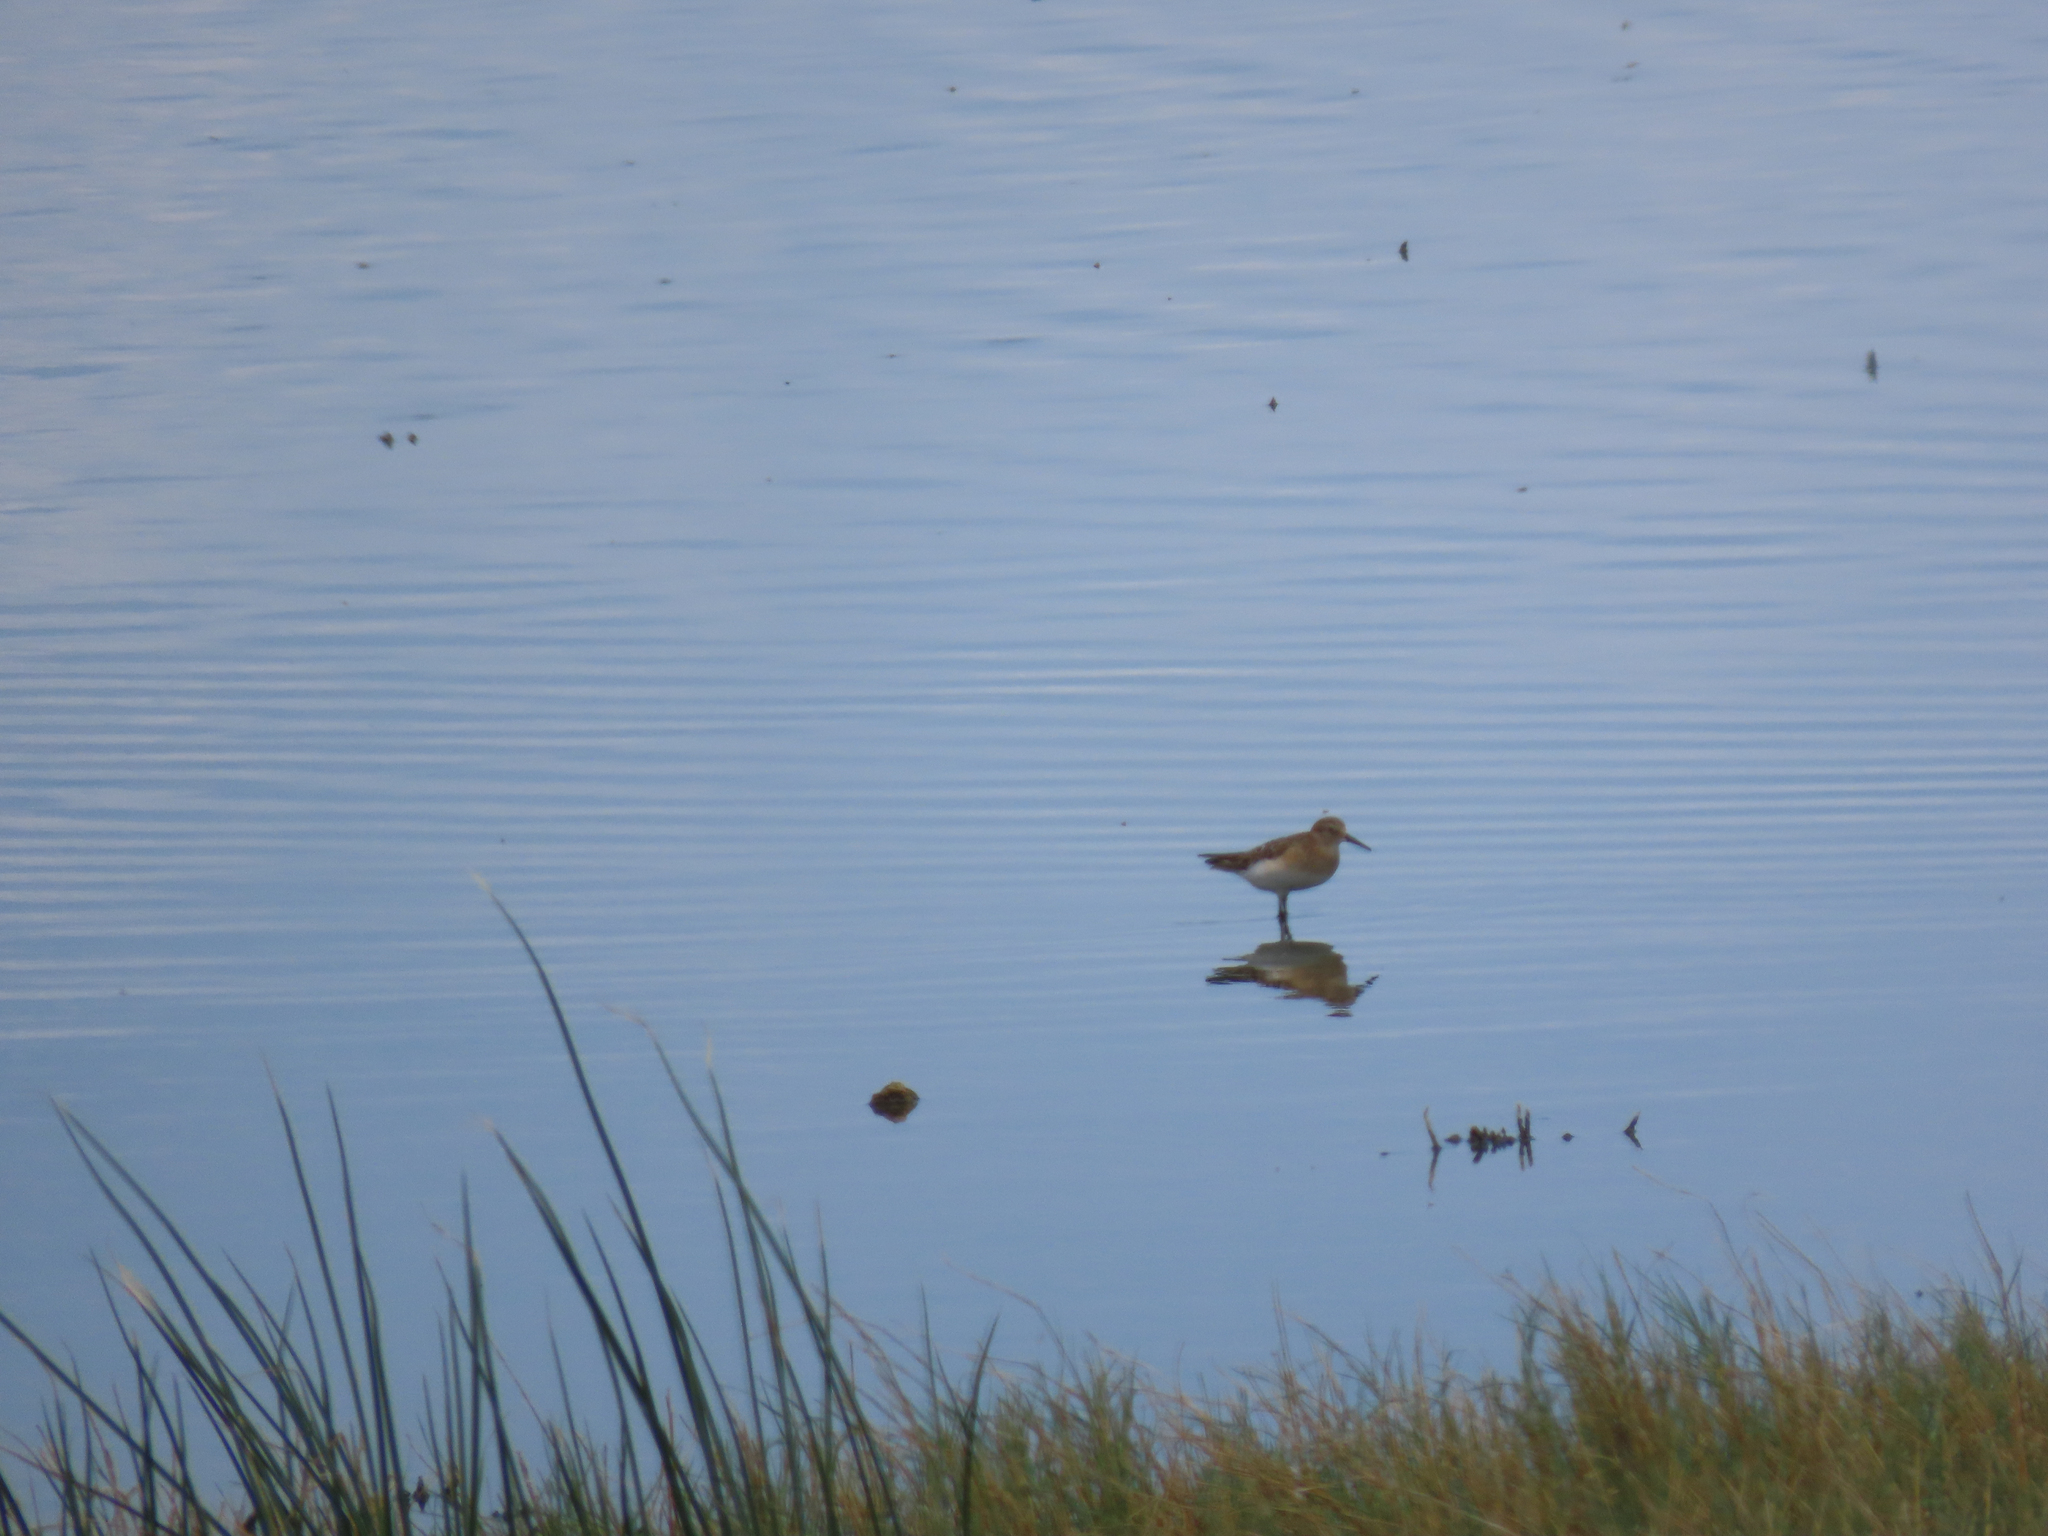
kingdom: Animalia
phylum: Chordata
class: Aves
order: Charadriiformes
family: Scolopacidae
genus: Calidris
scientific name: Calidris bairdii
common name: Baird's sandpiper
